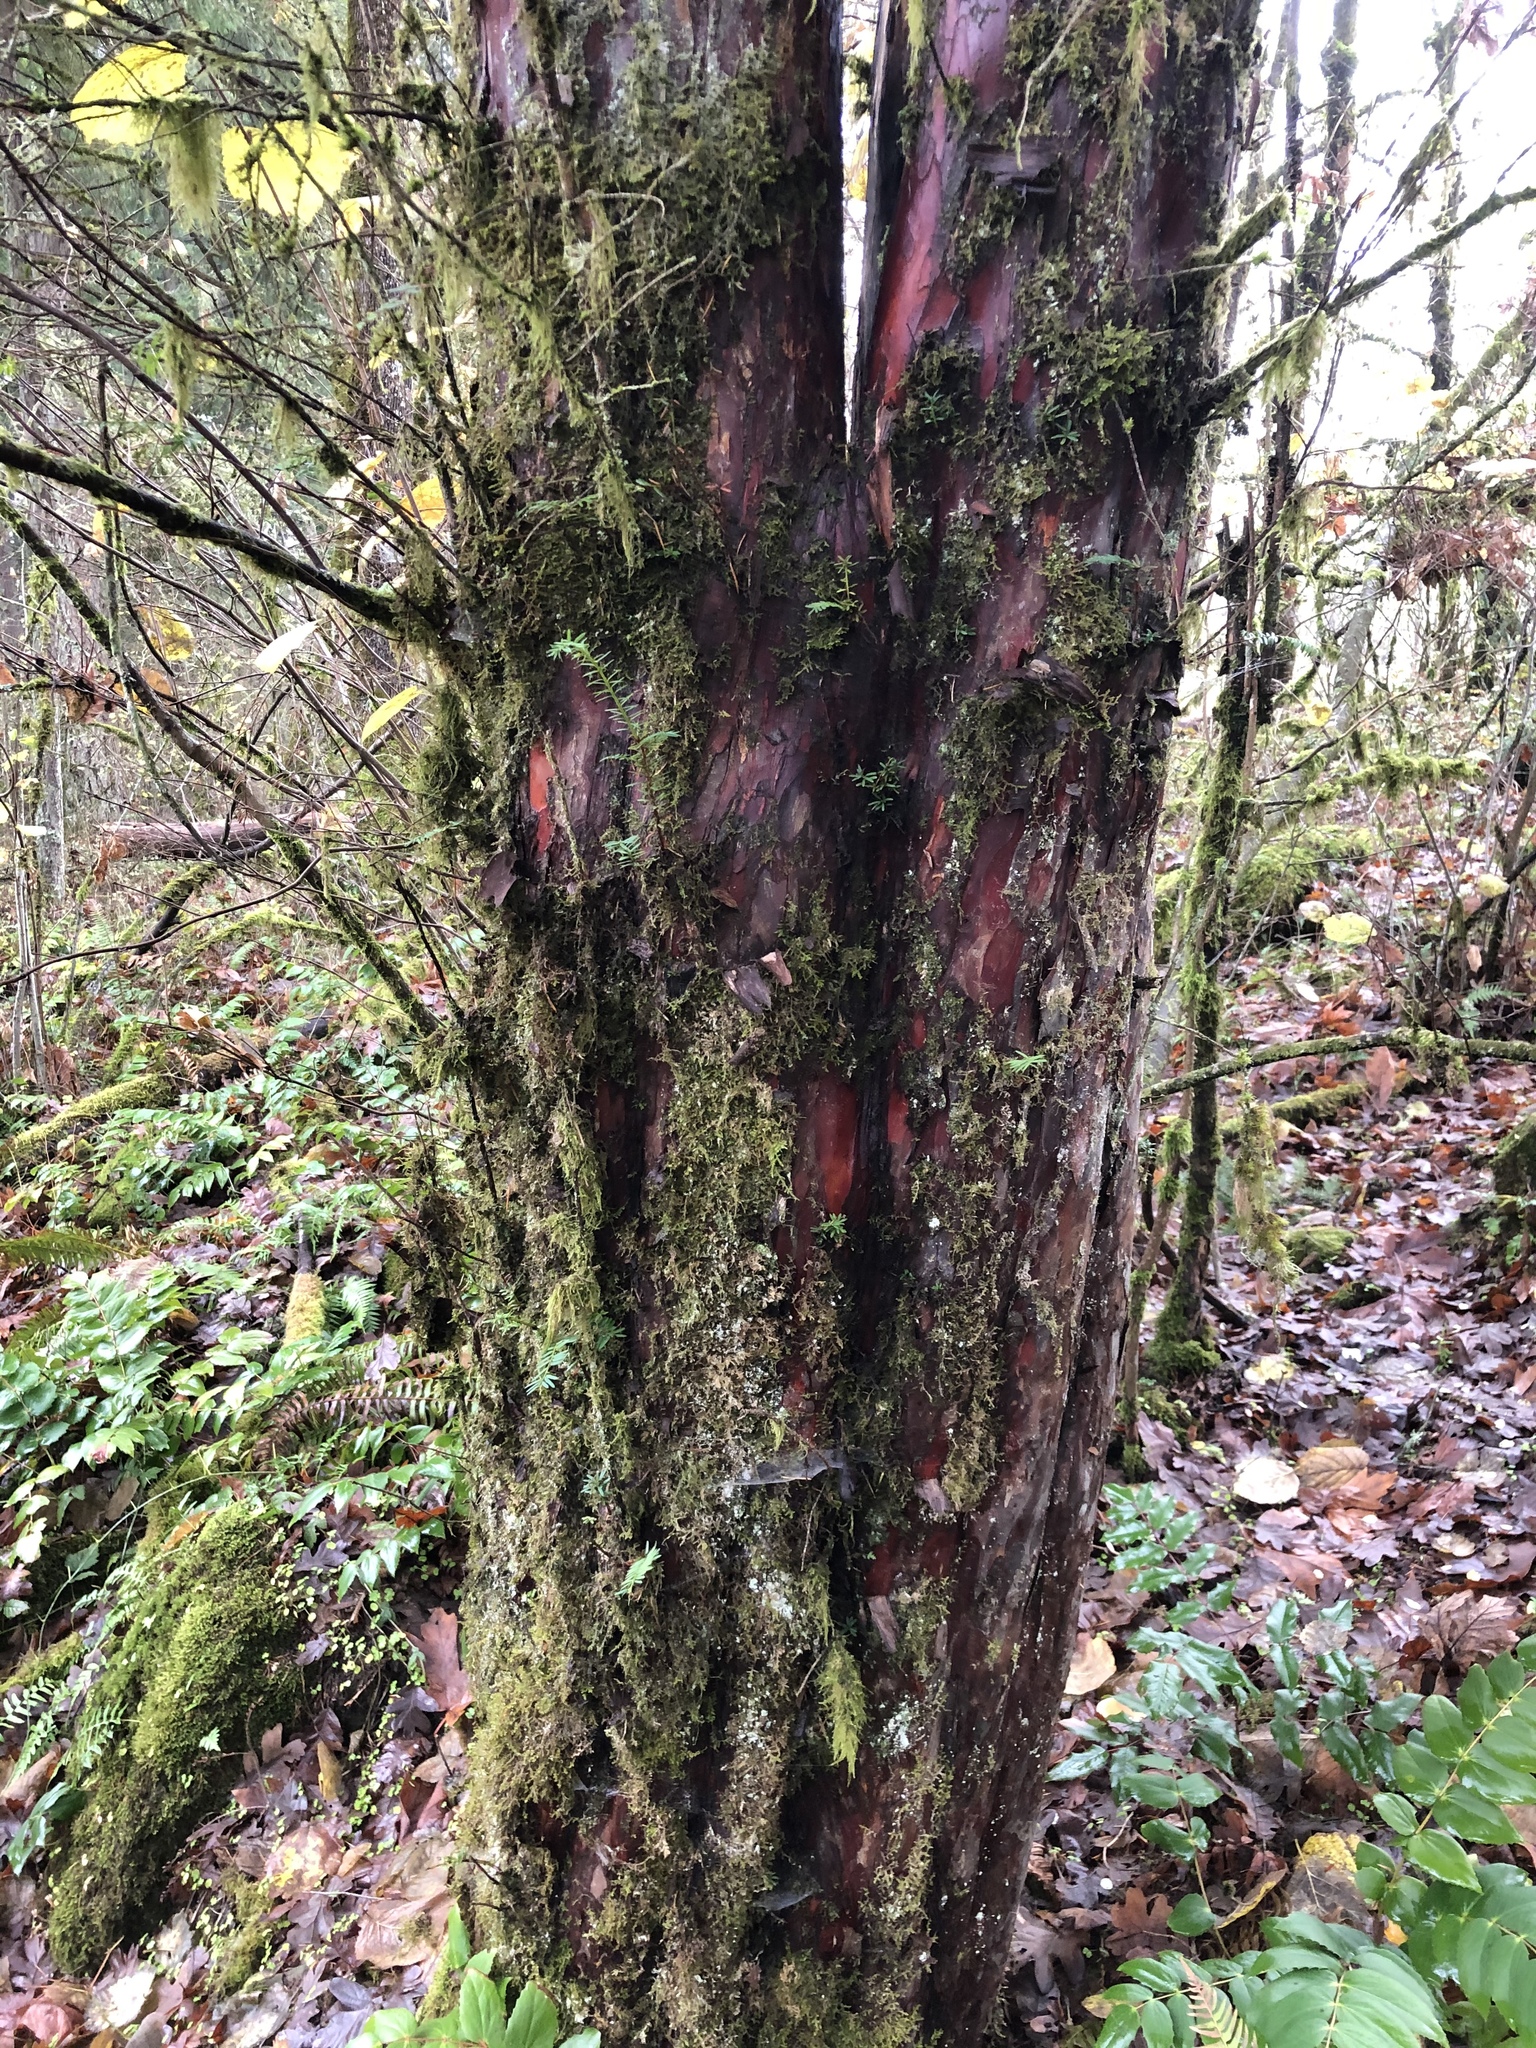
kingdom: Plantae
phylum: Tracheophyta
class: Pinopsida
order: Pinales
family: Taxaceae
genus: Taxus
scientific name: Taxus brevifolia
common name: Pacific yew
